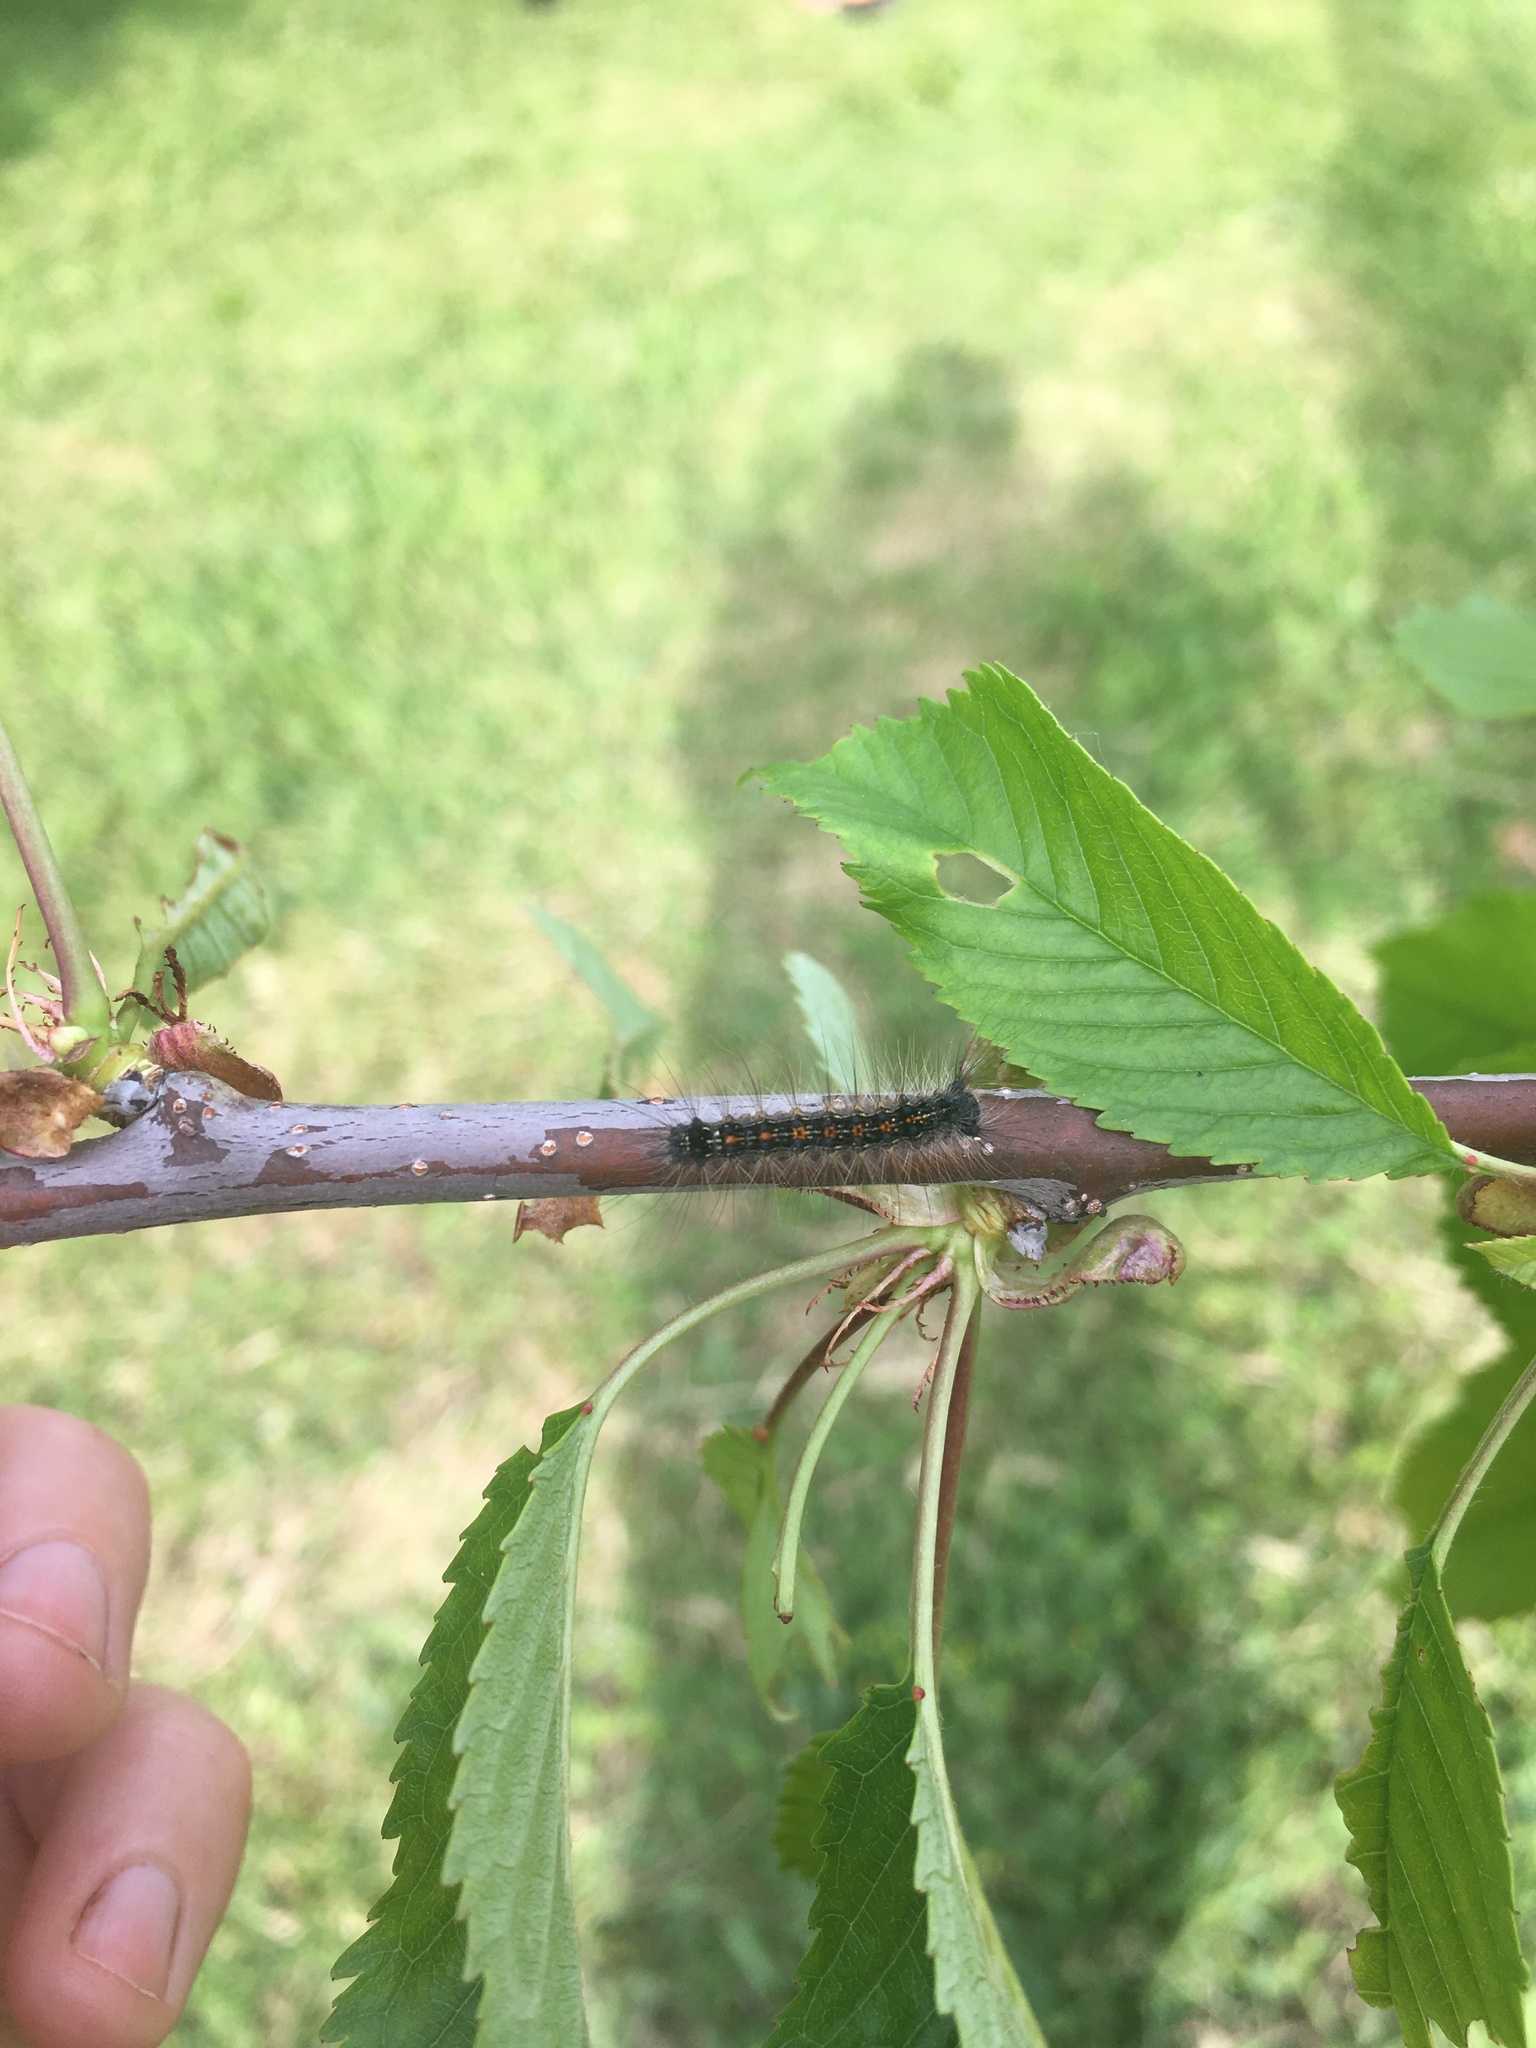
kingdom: Animalia
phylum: Arthropoda
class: Insecta
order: Lepidoptera
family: Erebidae
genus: Lymantria
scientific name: Lymantria dispar
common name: Gypsy moth
